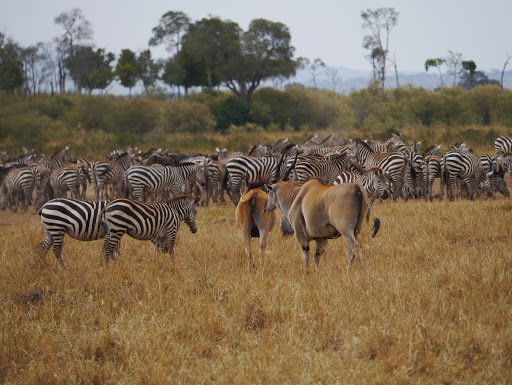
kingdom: Animalia
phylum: Chordata
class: Mammalia
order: Artiodactyla
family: Bovidae
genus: Taurotragus
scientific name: Taurotragus oryx
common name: Common eland
